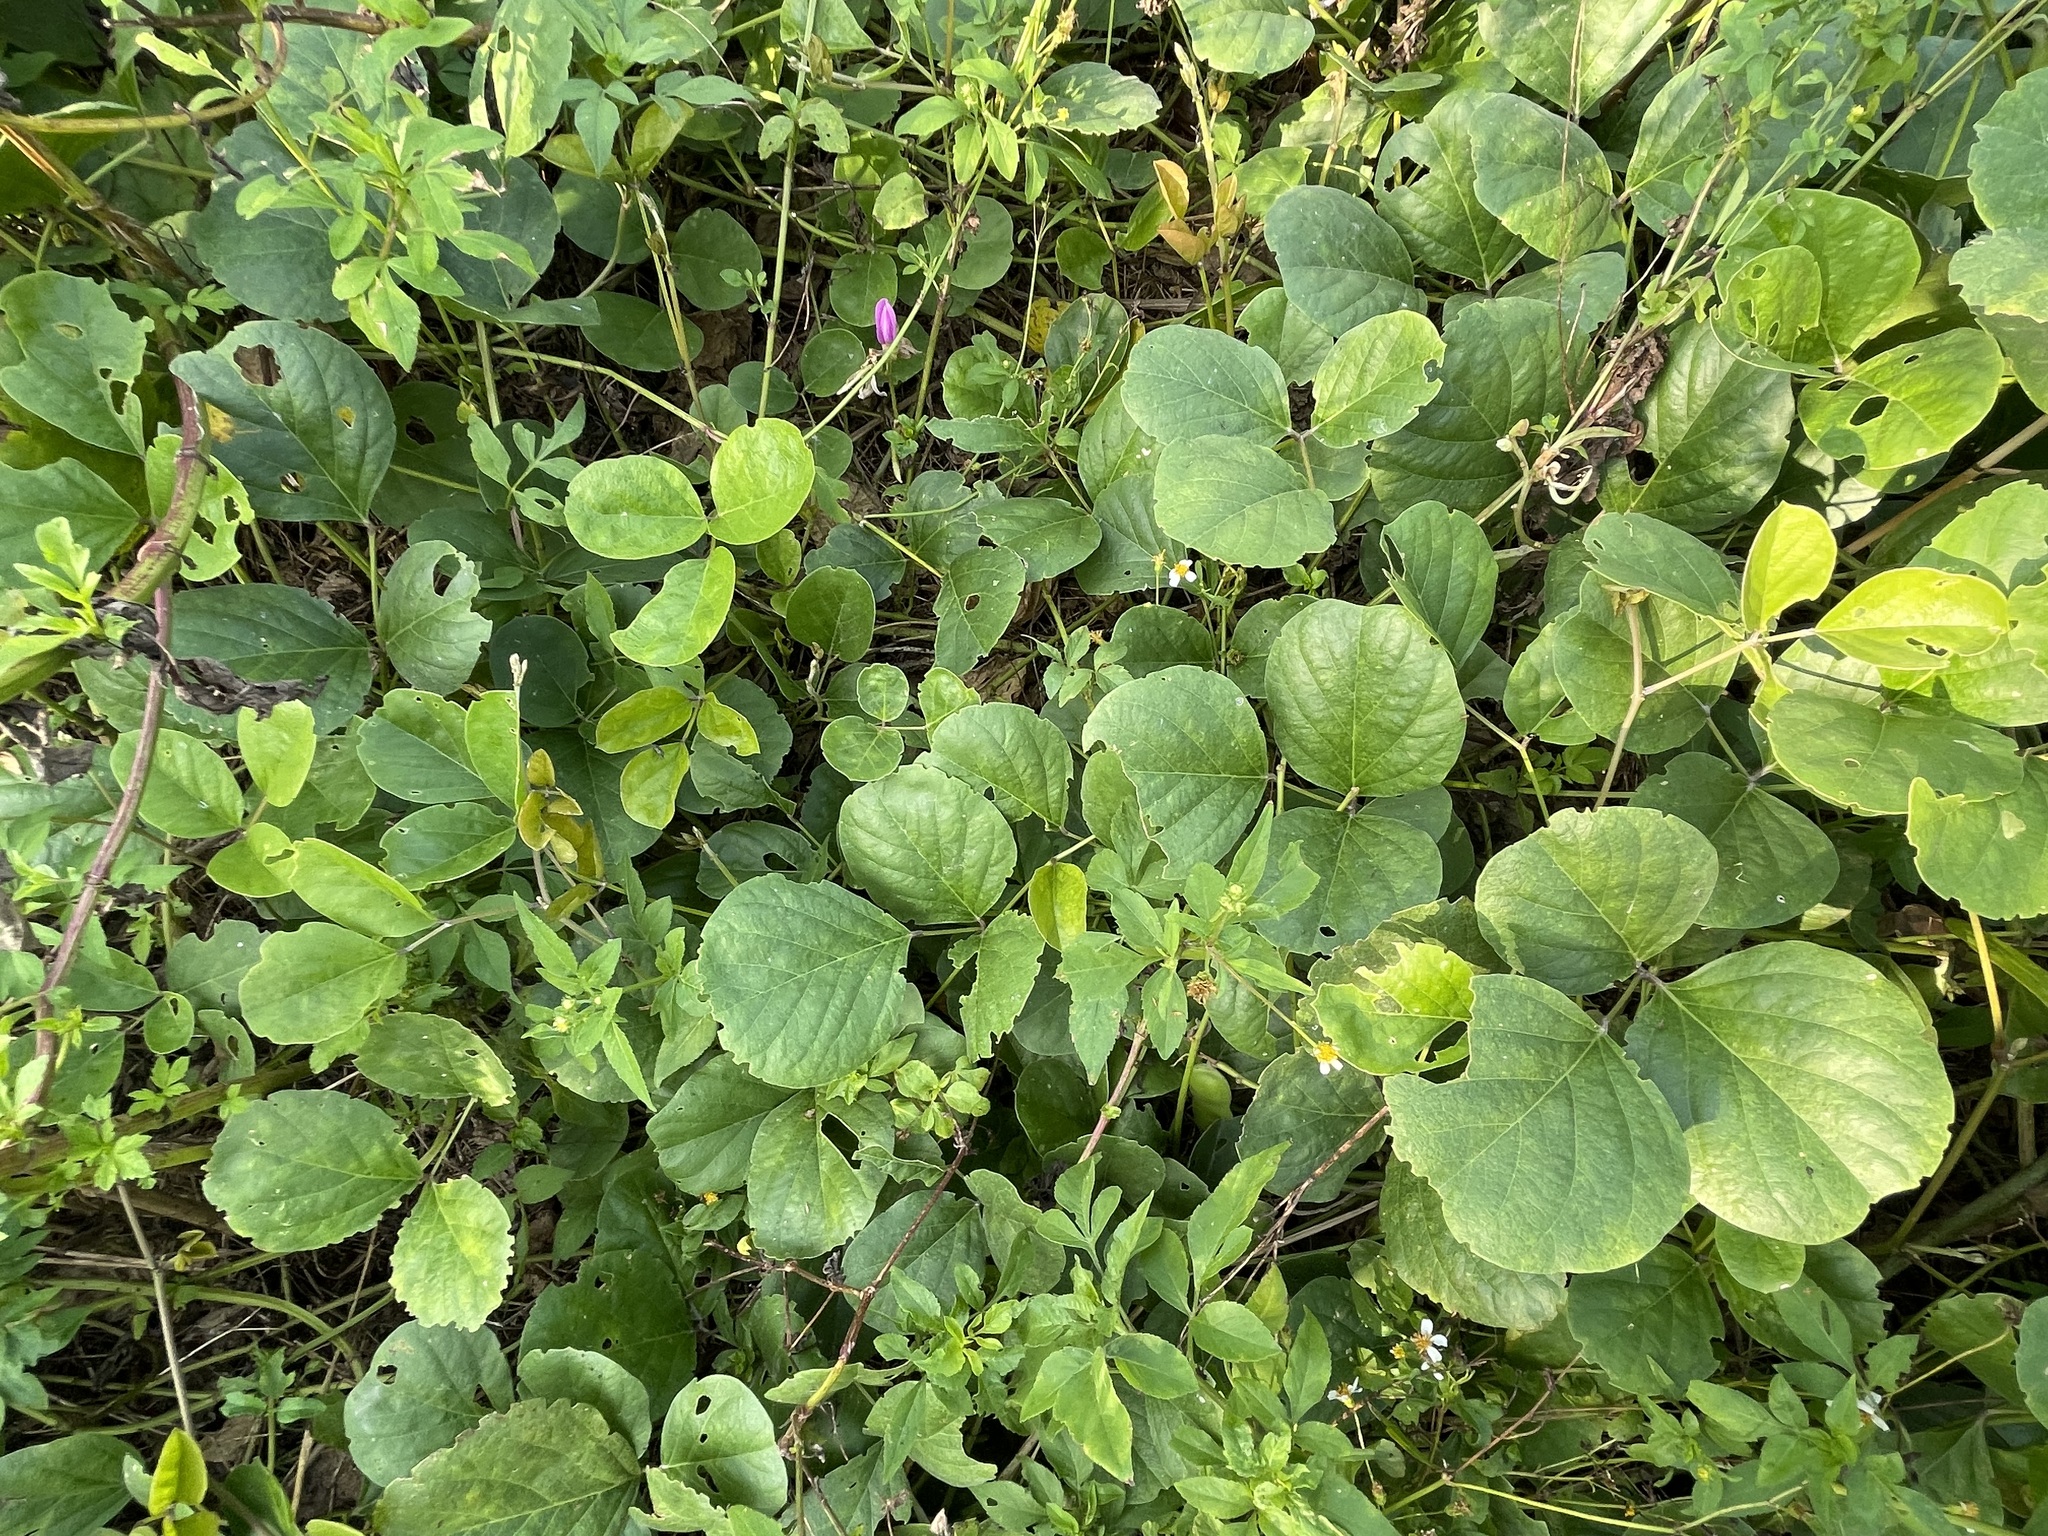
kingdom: Plantae
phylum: Tracheophyta
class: Magnoliopsida
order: Fabales
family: Fabaceae
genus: Canavalia
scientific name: Canavalia rosea
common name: Beach-bean
